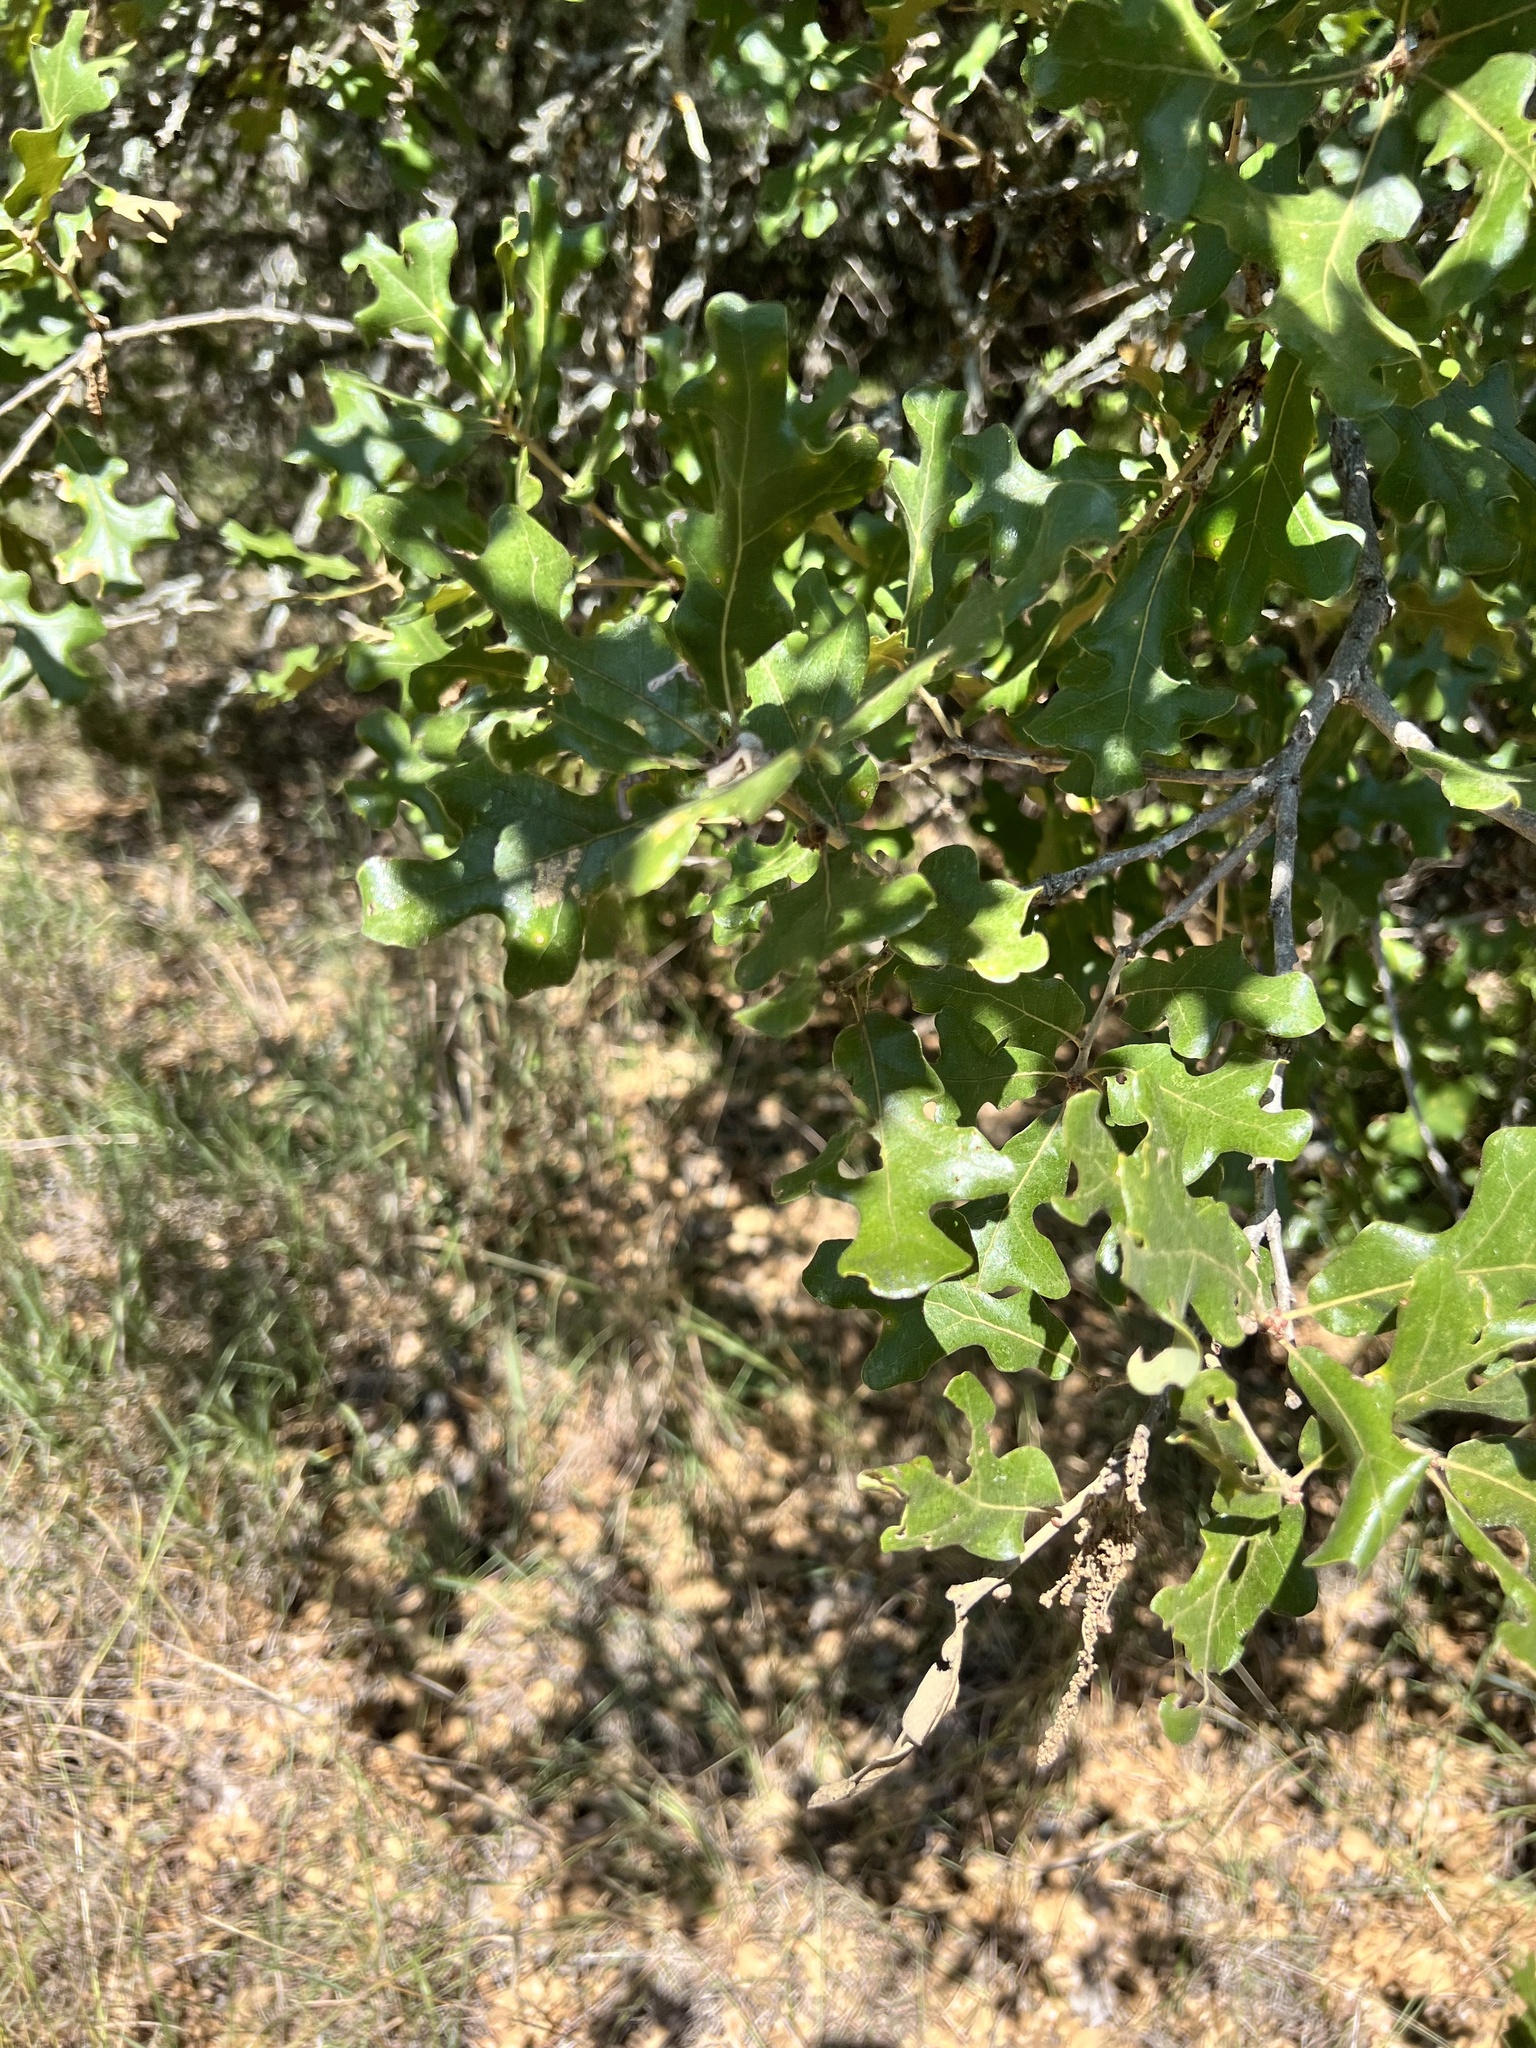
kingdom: Plantae
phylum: Tracheophyta
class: Magnoliopsida
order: Fagales
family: Fagaceae
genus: Quercus
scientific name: Quercus stellata
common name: Post oak
